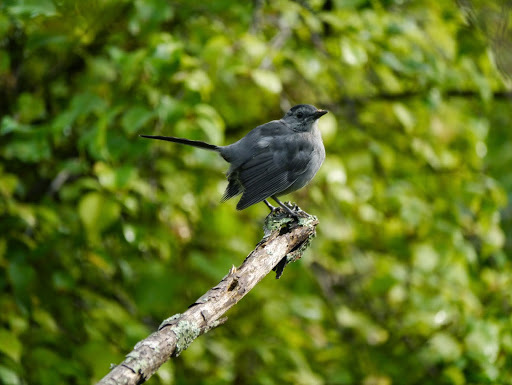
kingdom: Animalia
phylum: Chordata
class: Aves
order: Passeriformes
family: Mimidae
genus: Dumetella
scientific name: Dumetella carolinensis
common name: Gray catbird
